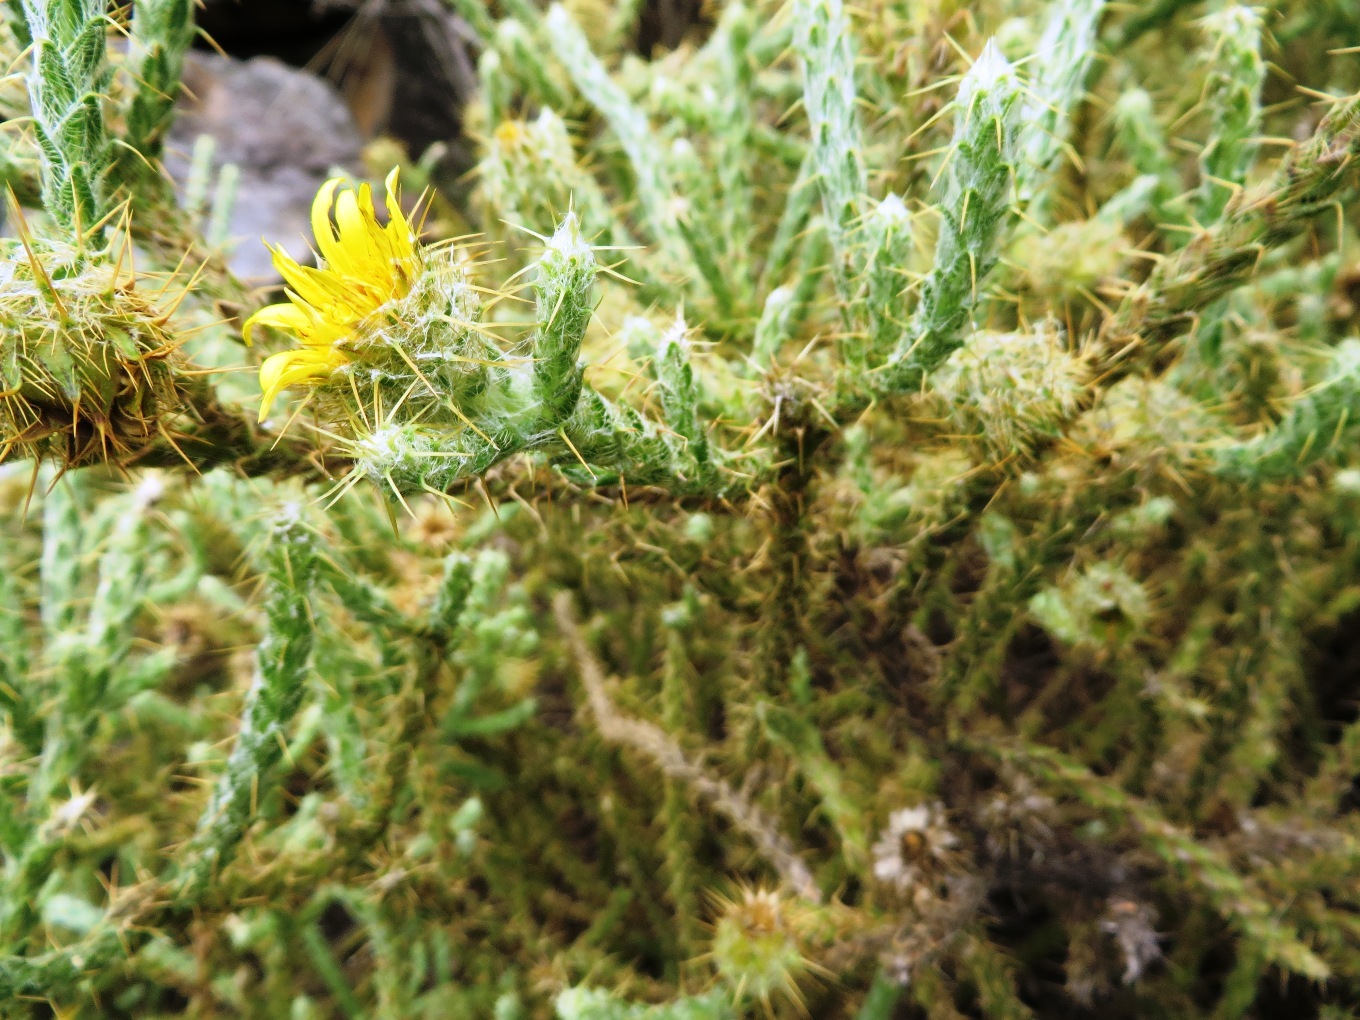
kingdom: Plantae
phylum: Tracheophyta
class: Magnoliopsida
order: Asterales
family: Asteraceae
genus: Cullumia
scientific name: Cullumia reticulata
